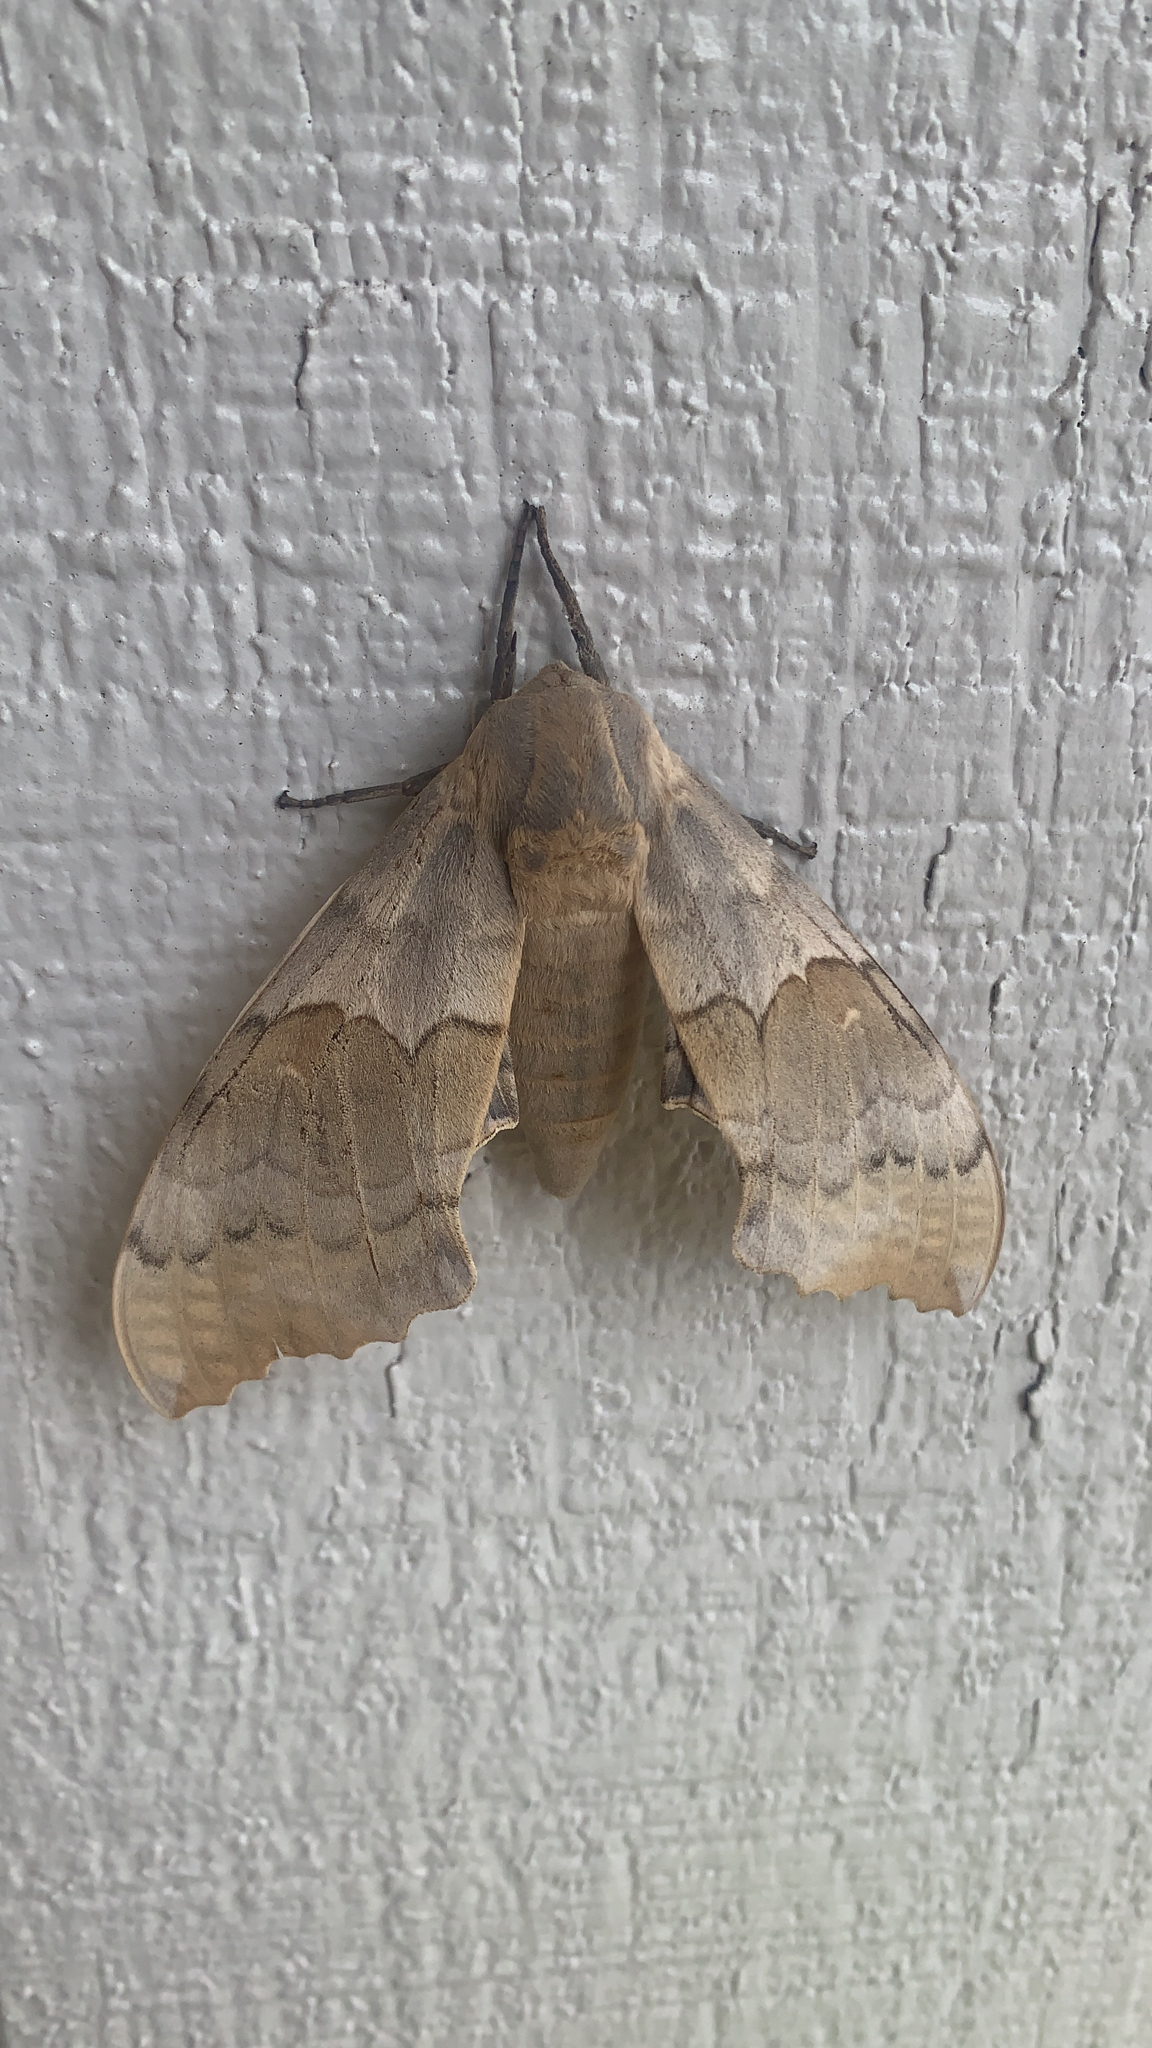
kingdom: Animalia
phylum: Arthropoda
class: Insecta
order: Lepidoptera
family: Sphingidae
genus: Pachysphinx
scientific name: Pachysphinx occidentalis
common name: Western poplar sphinx
